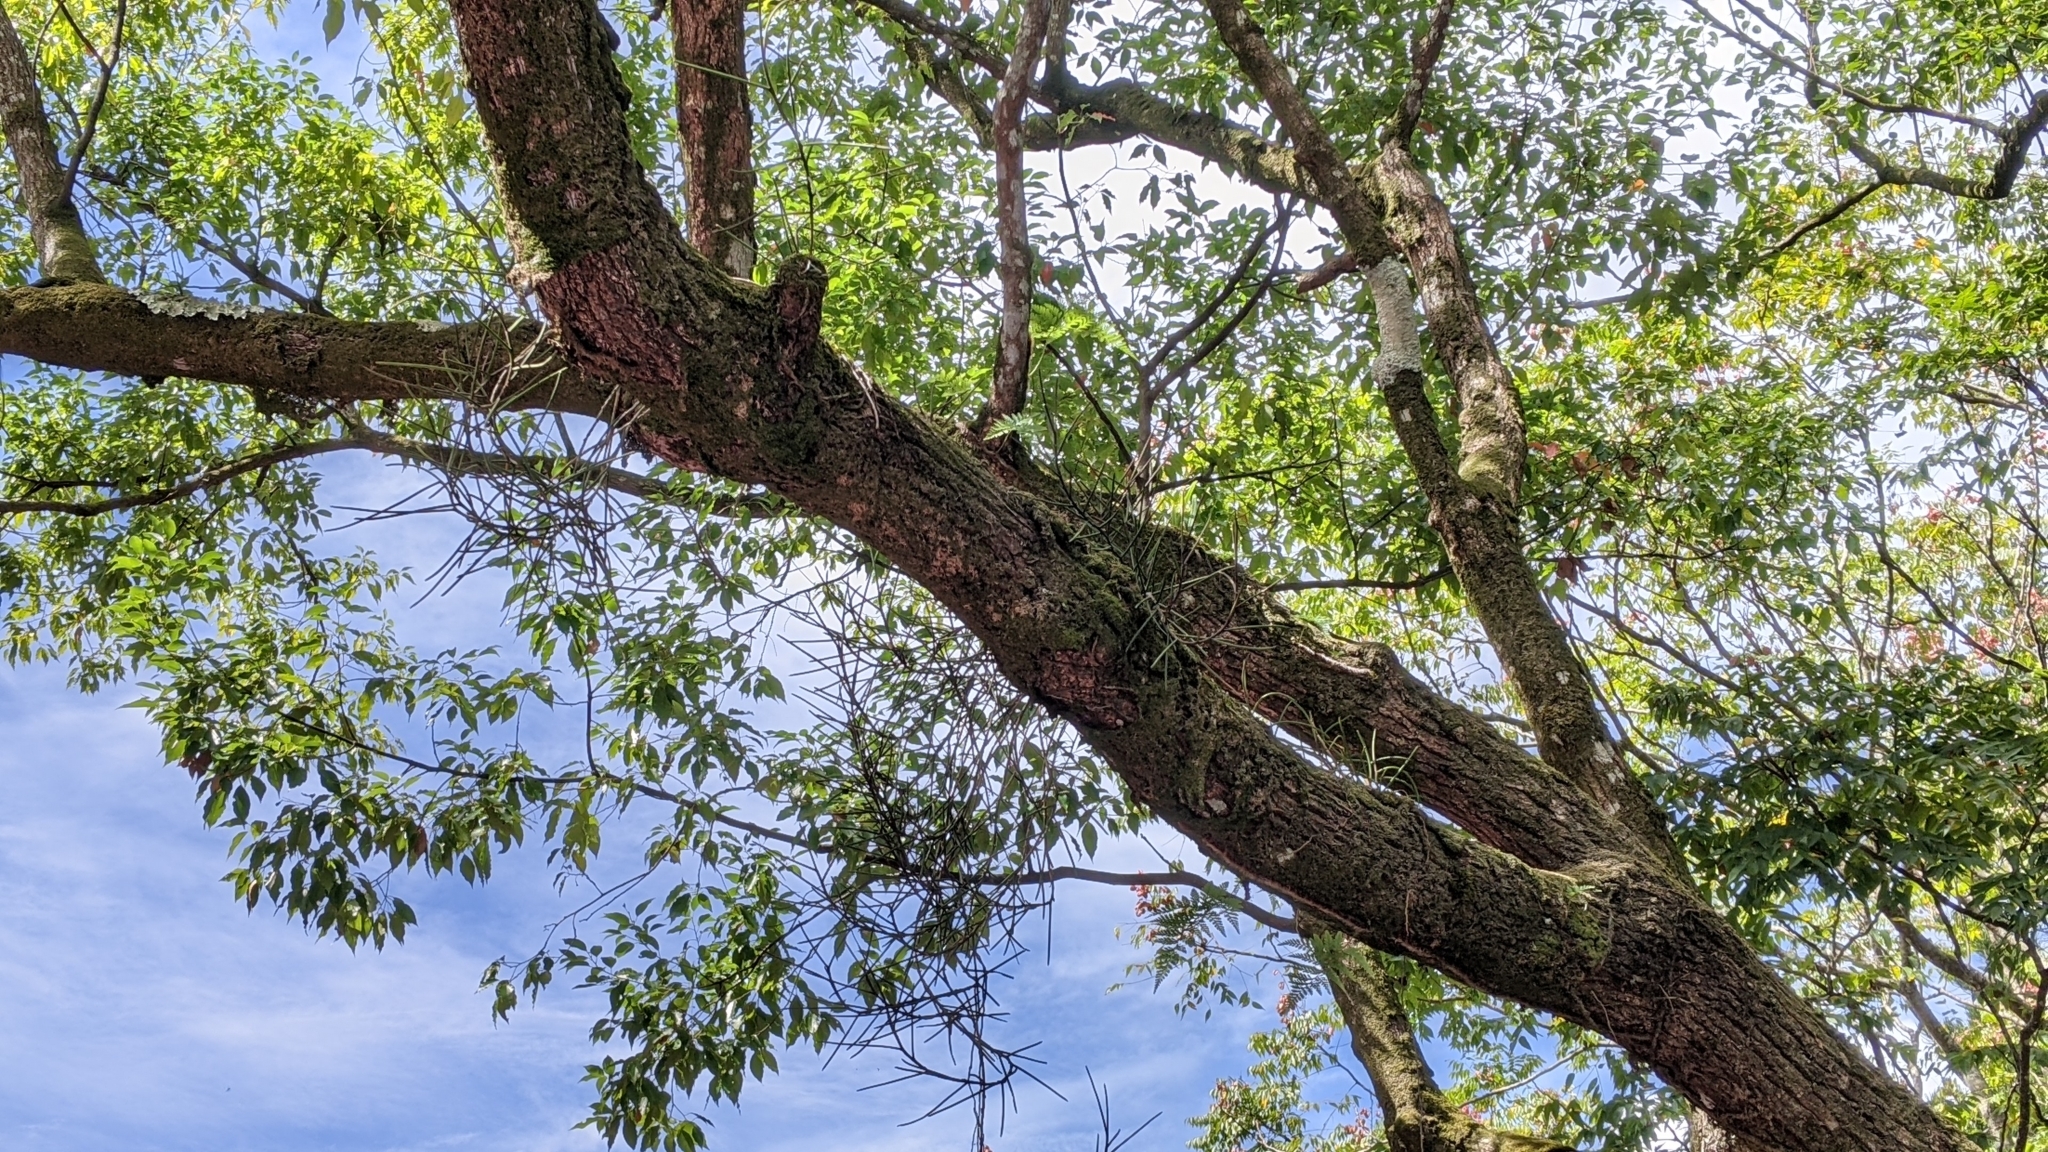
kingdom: Plantae
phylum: Tracheophyta
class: Liliopsida
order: Asparagales
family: Orchidaceae
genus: Luisia
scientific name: Luisia teres
